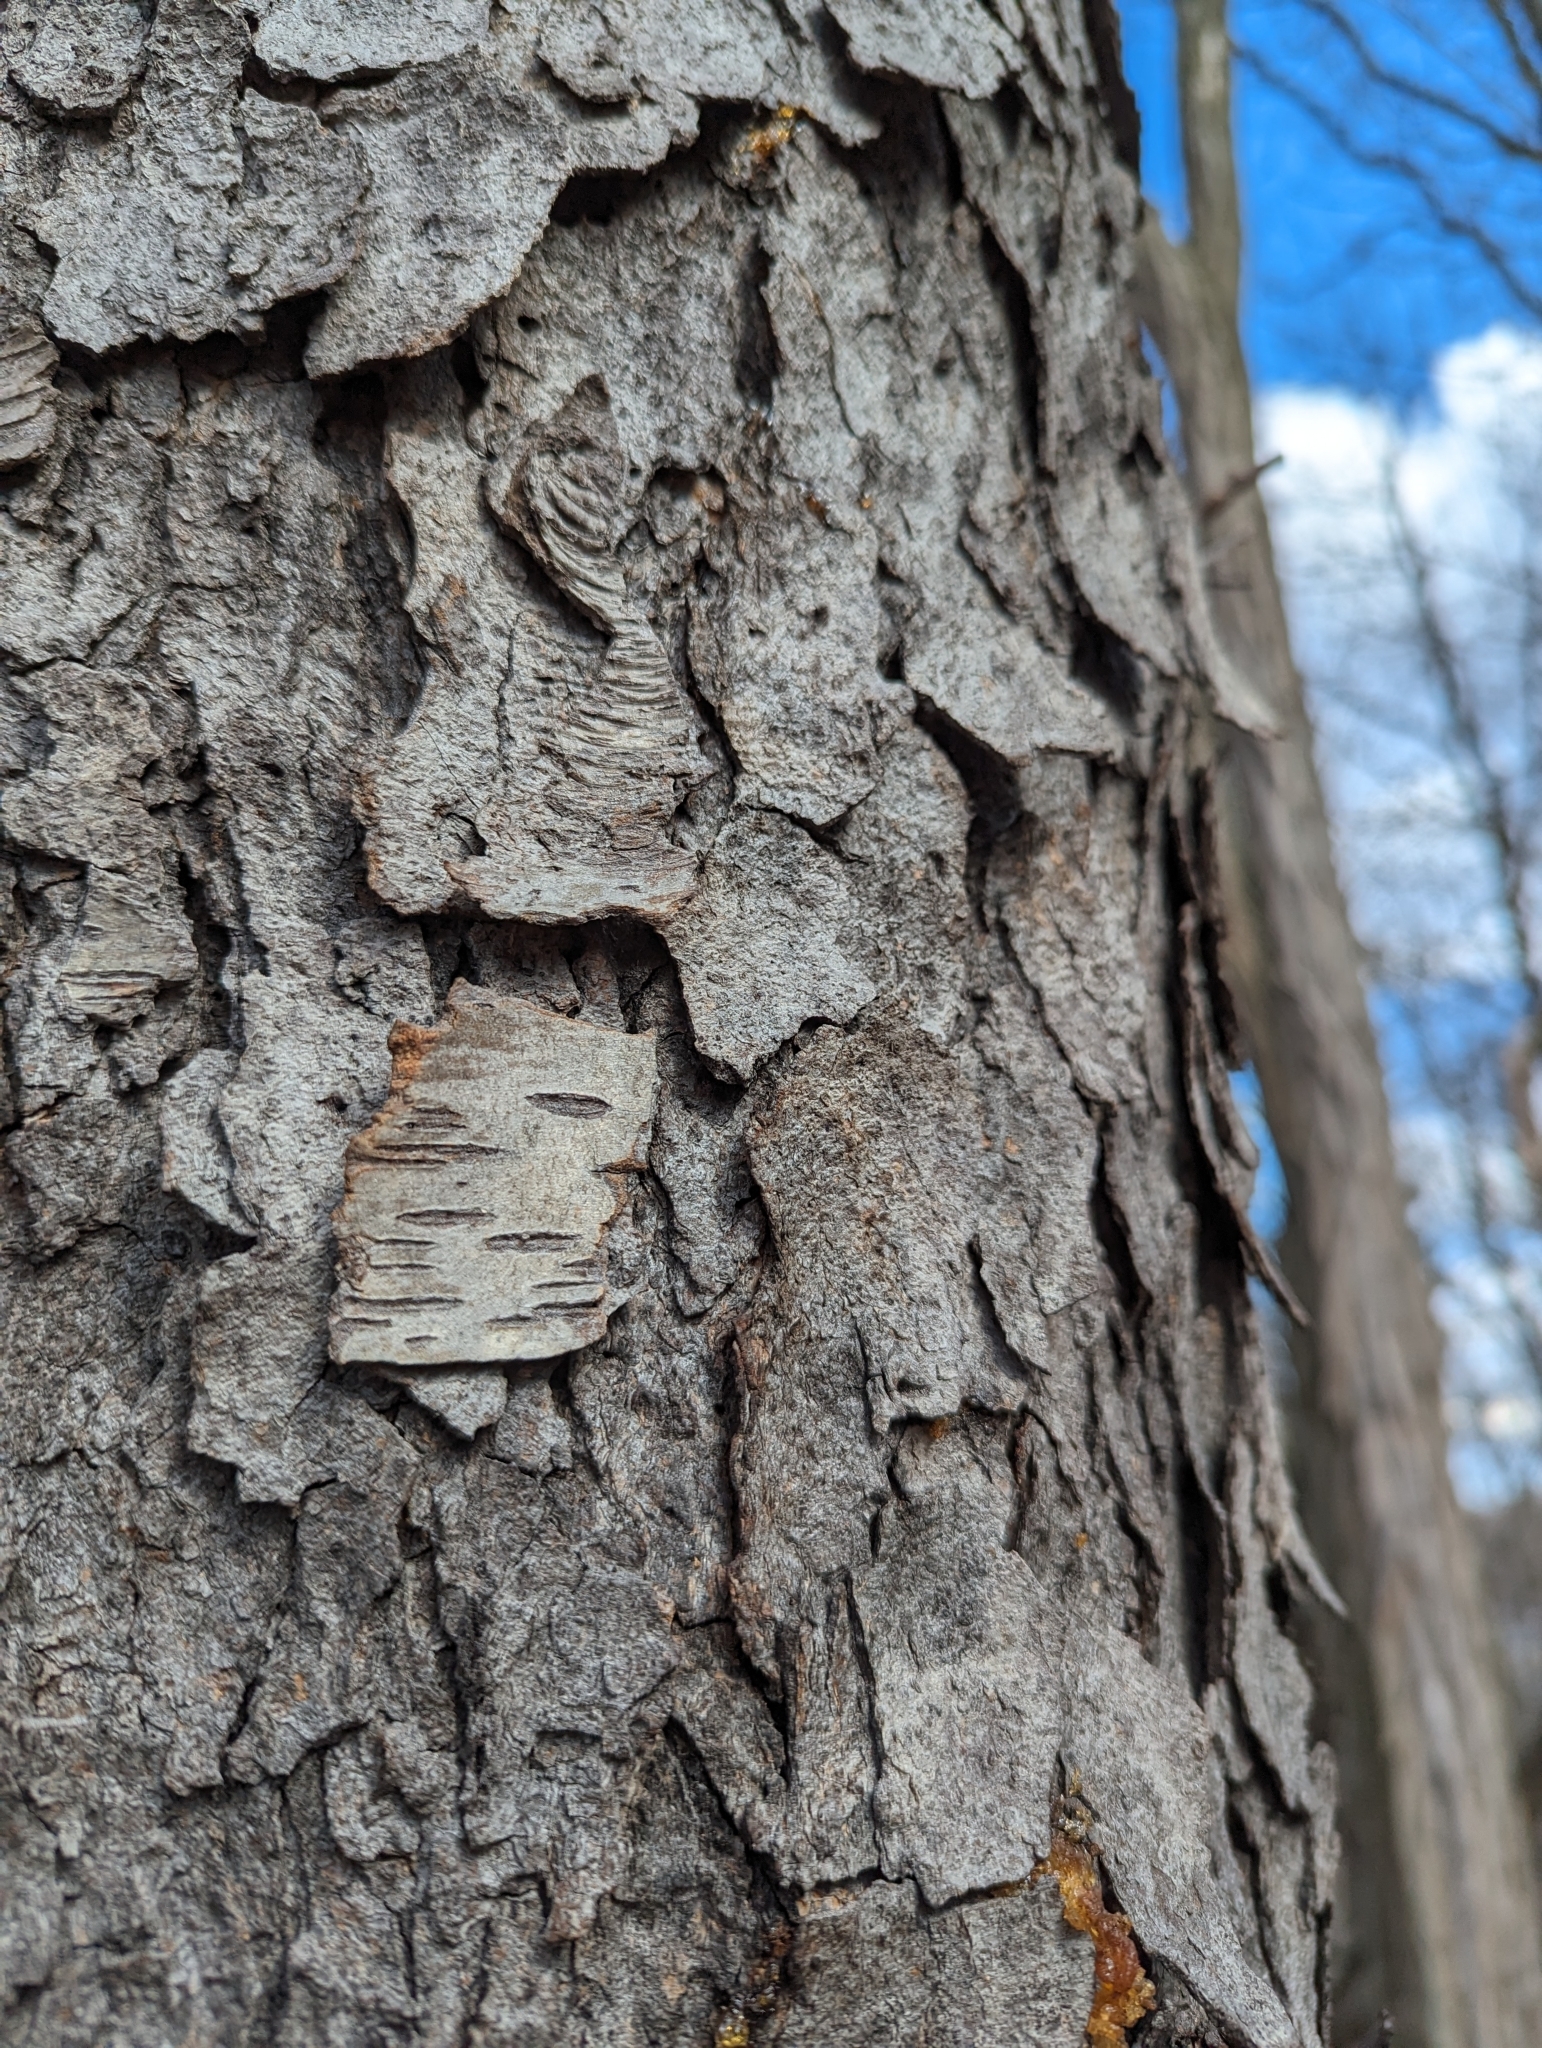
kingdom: Plantae
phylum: Tracheophyta
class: Magnoliopsida
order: Rosales
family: Rosaceae
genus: Prunus
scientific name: Prunus serotina
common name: Black cherry
